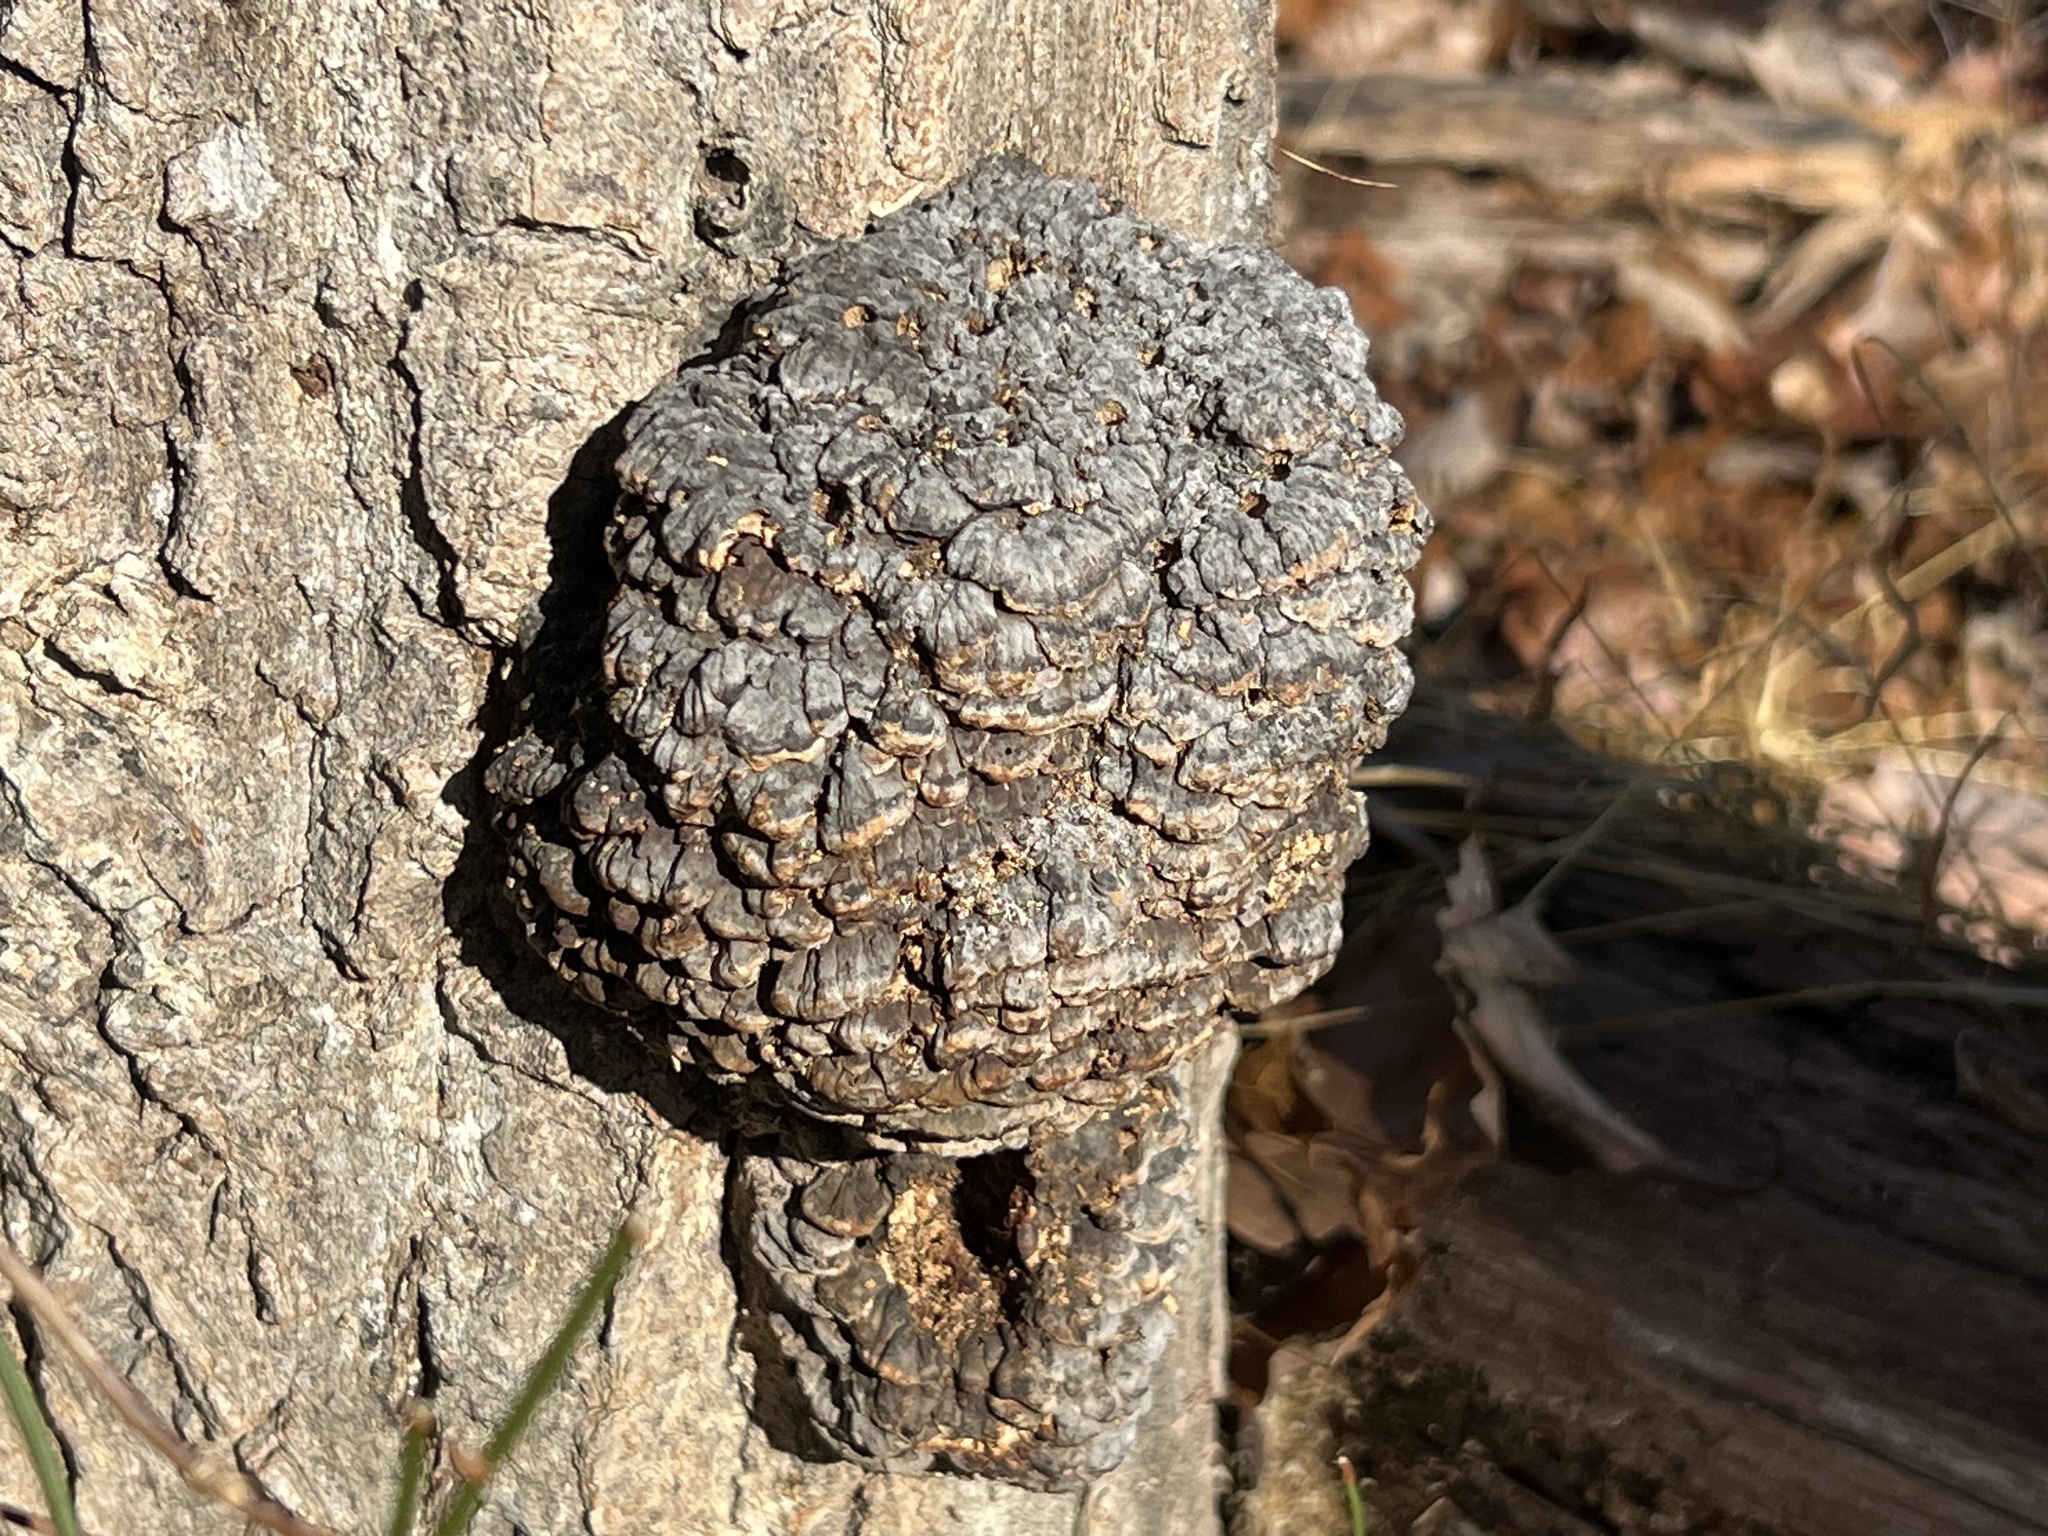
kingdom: Fungi
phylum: Basidiomycota
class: Agaricomycetes
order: Polyporales
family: Polyporaceae
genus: Globifomes
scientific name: Globifomes graveolens
